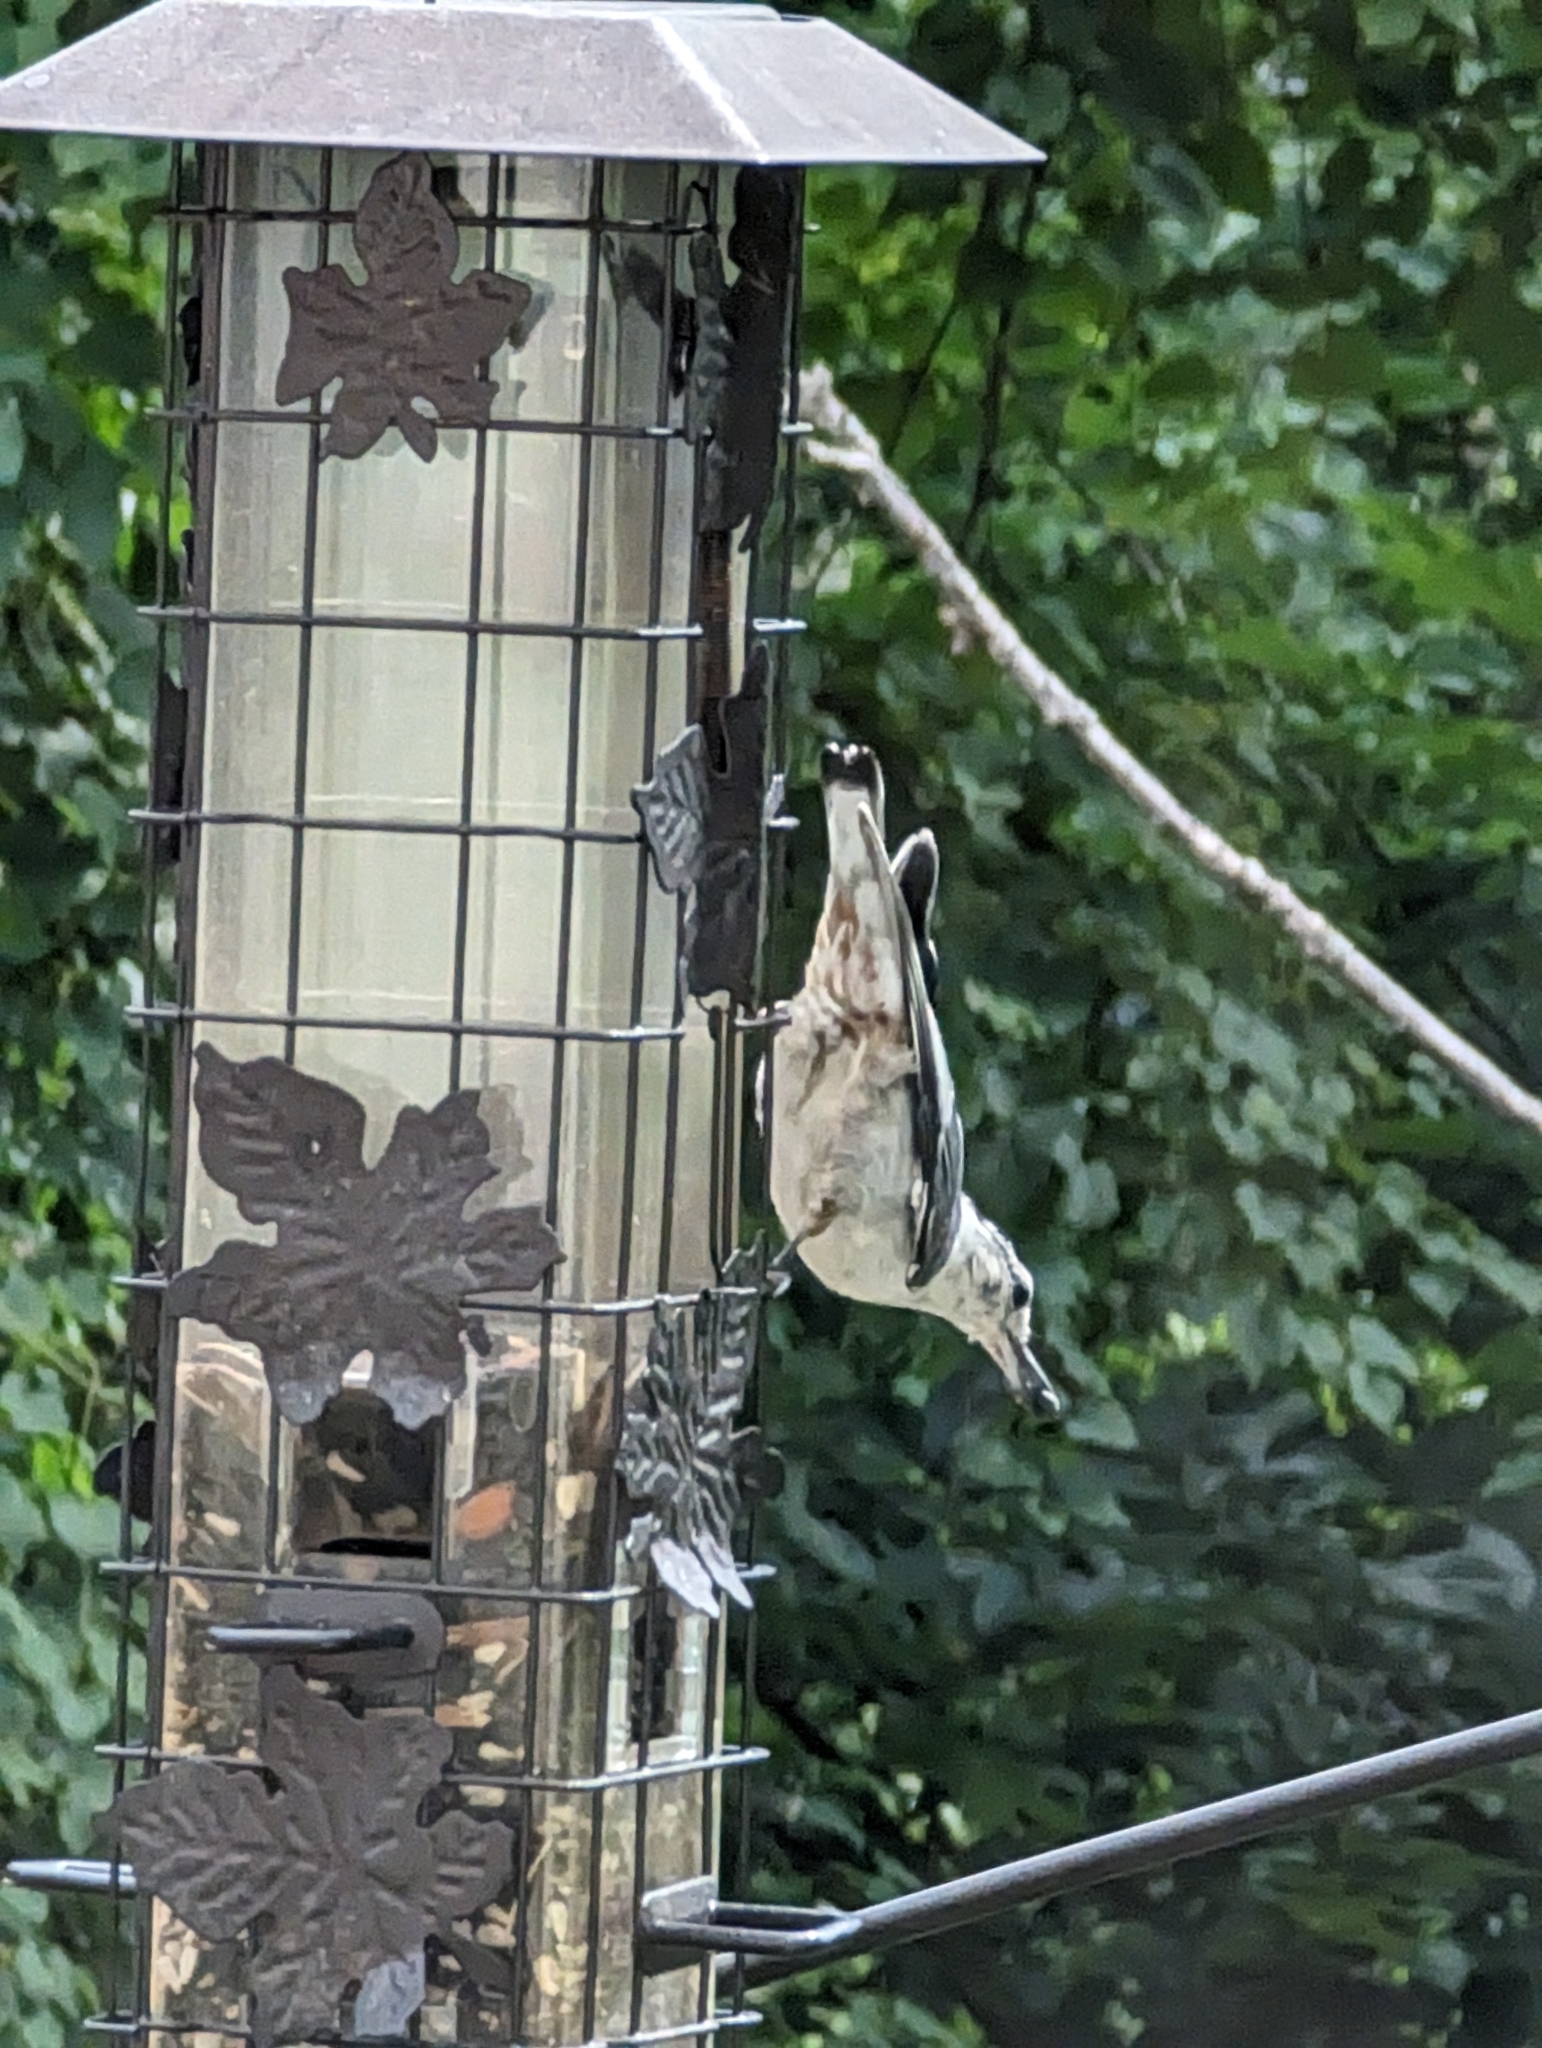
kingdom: Animalia
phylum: Chordata
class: Aves
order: Passeriformes
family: Sittidae
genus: Sitta
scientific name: Sitta carolinensis
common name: White-breasted nuthatch
